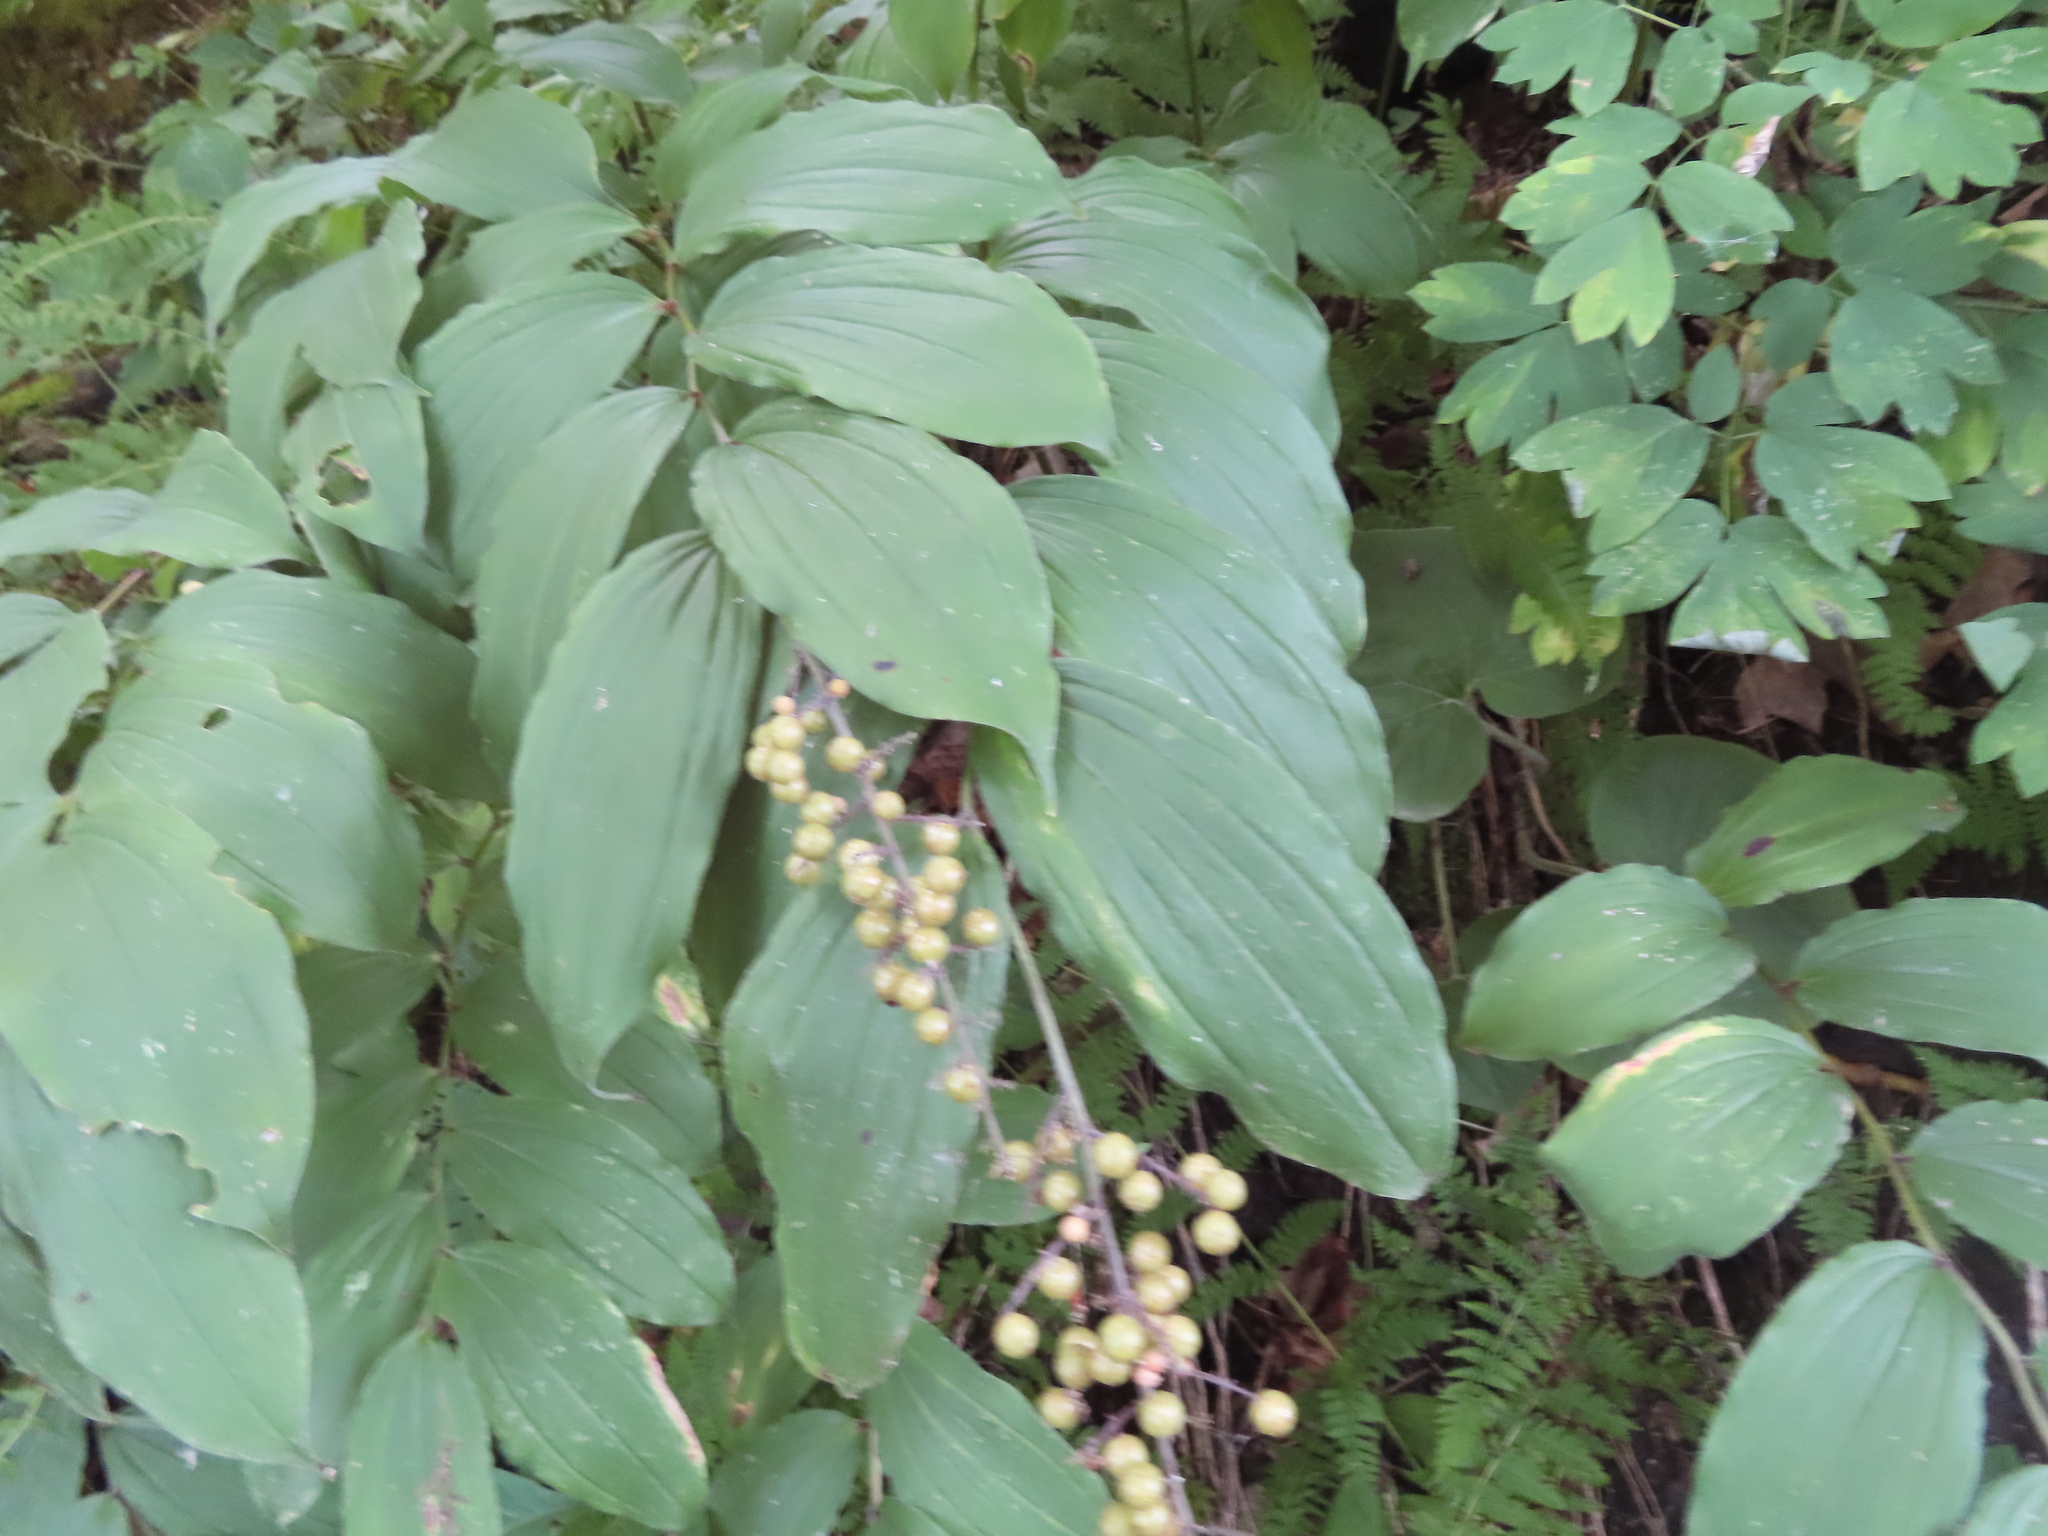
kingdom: Plantae
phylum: Tracheophyta
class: Liliopsida
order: Asparagales
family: Asparagaceae
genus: Maianthemum
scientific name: Maianthemum racemosum
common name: False spikenard
